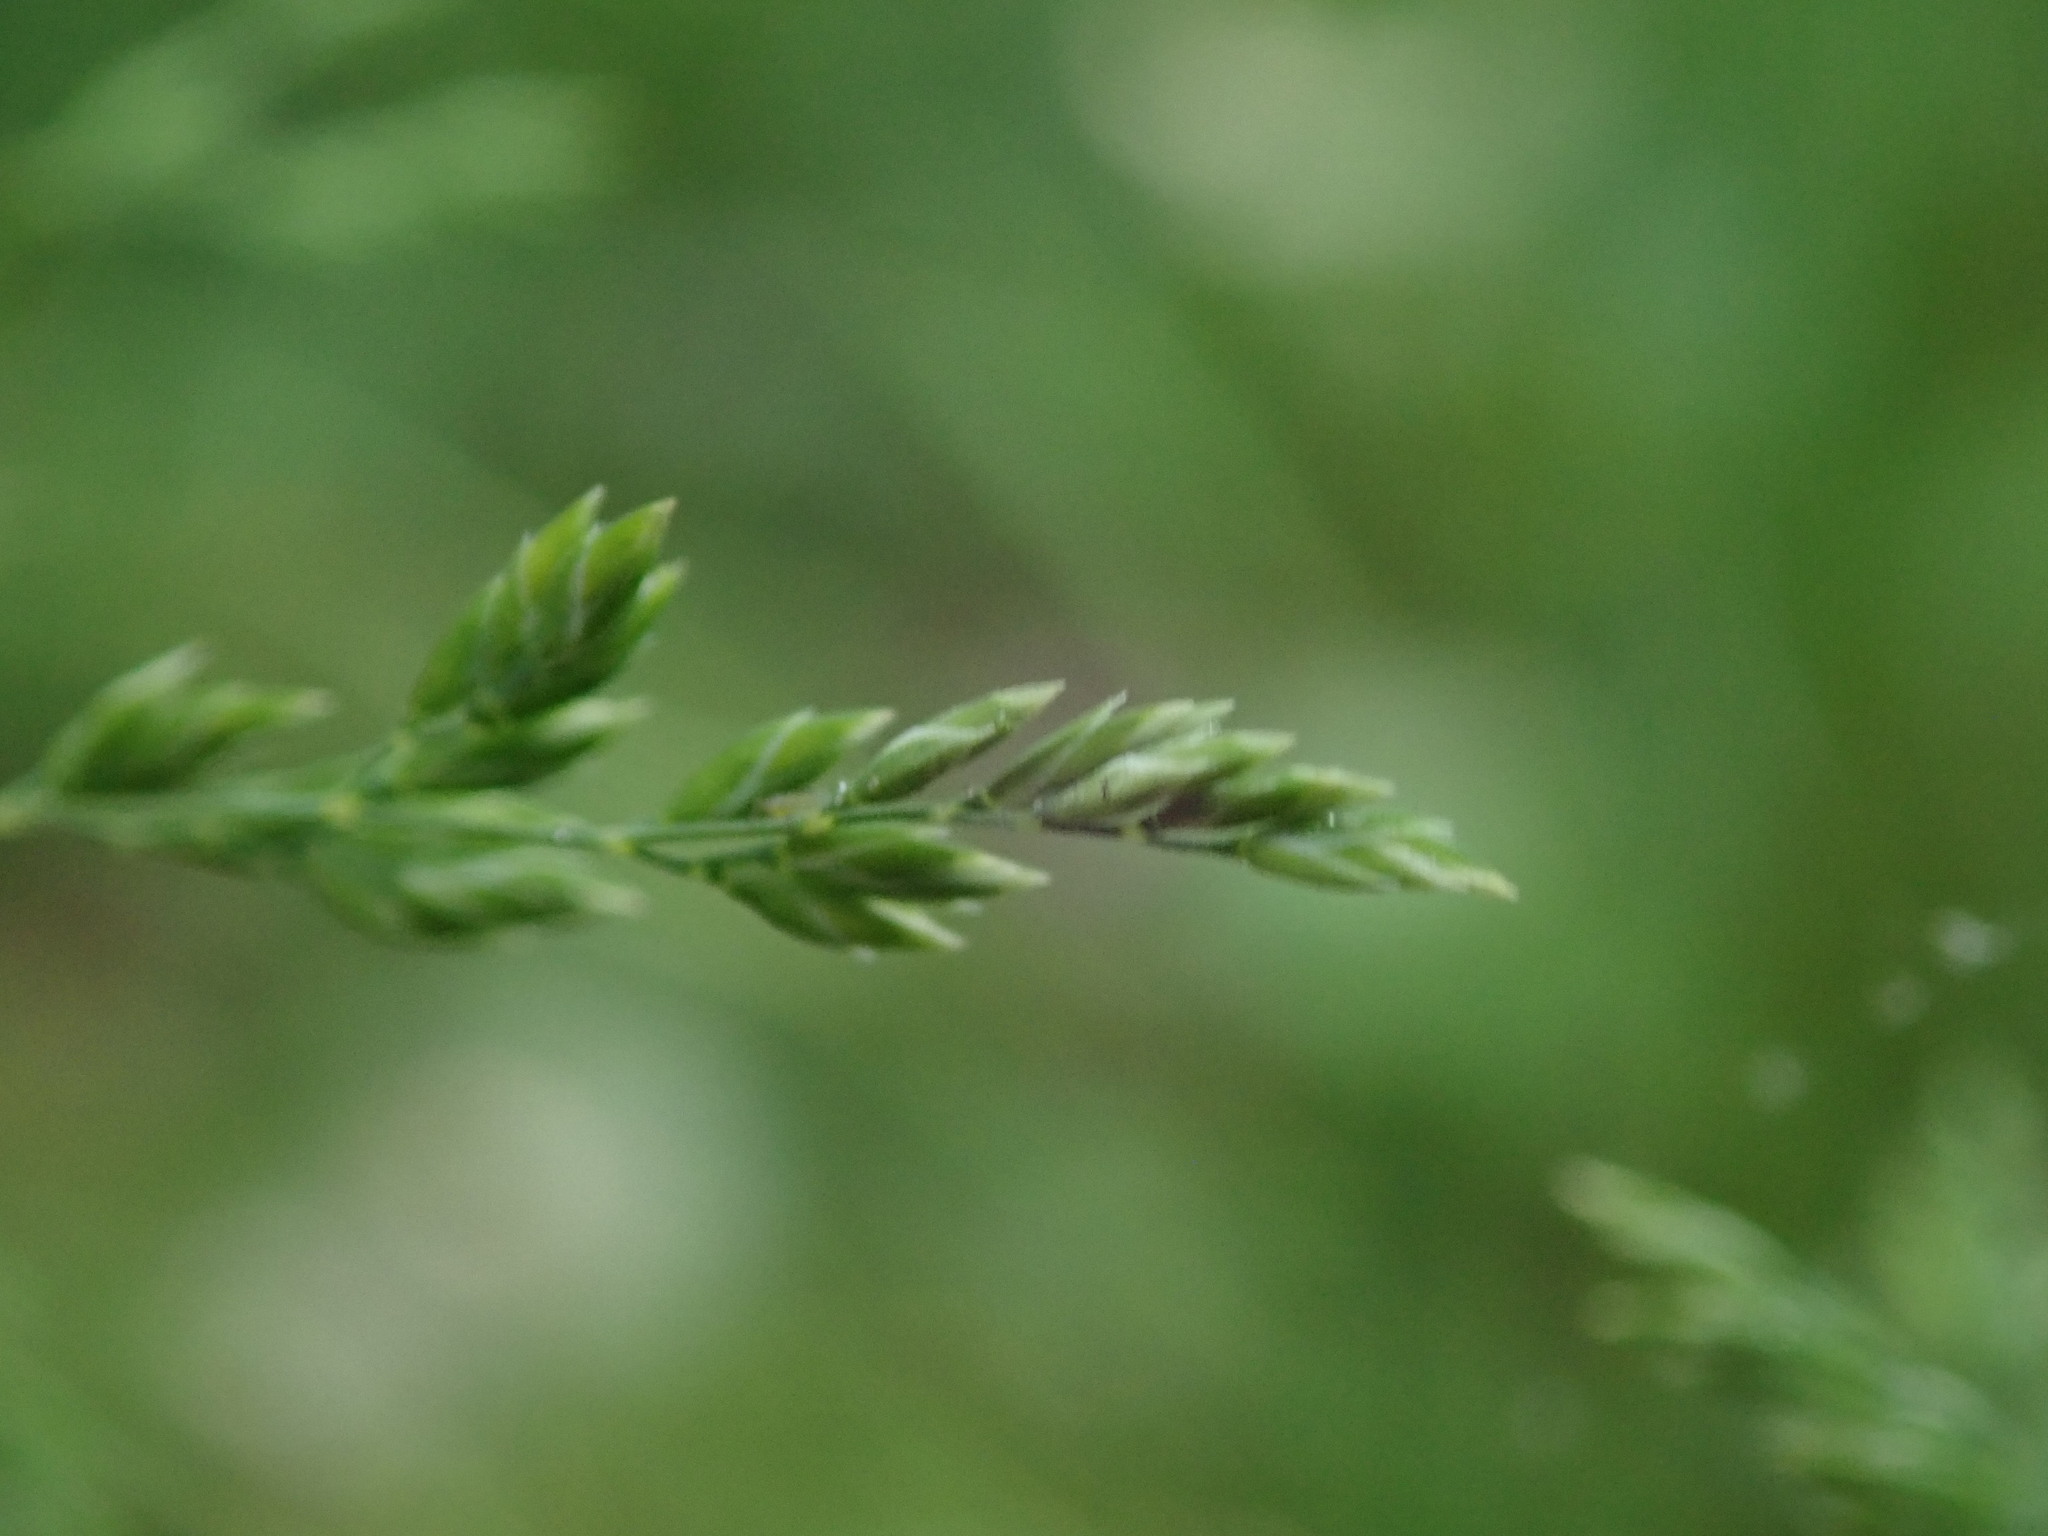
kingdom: Plantae
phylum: Tracheophyta
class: Liliopsida
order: Poales
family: Poaceae
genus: Poa
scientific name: Poa trivialis
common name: Rough bluegrass
